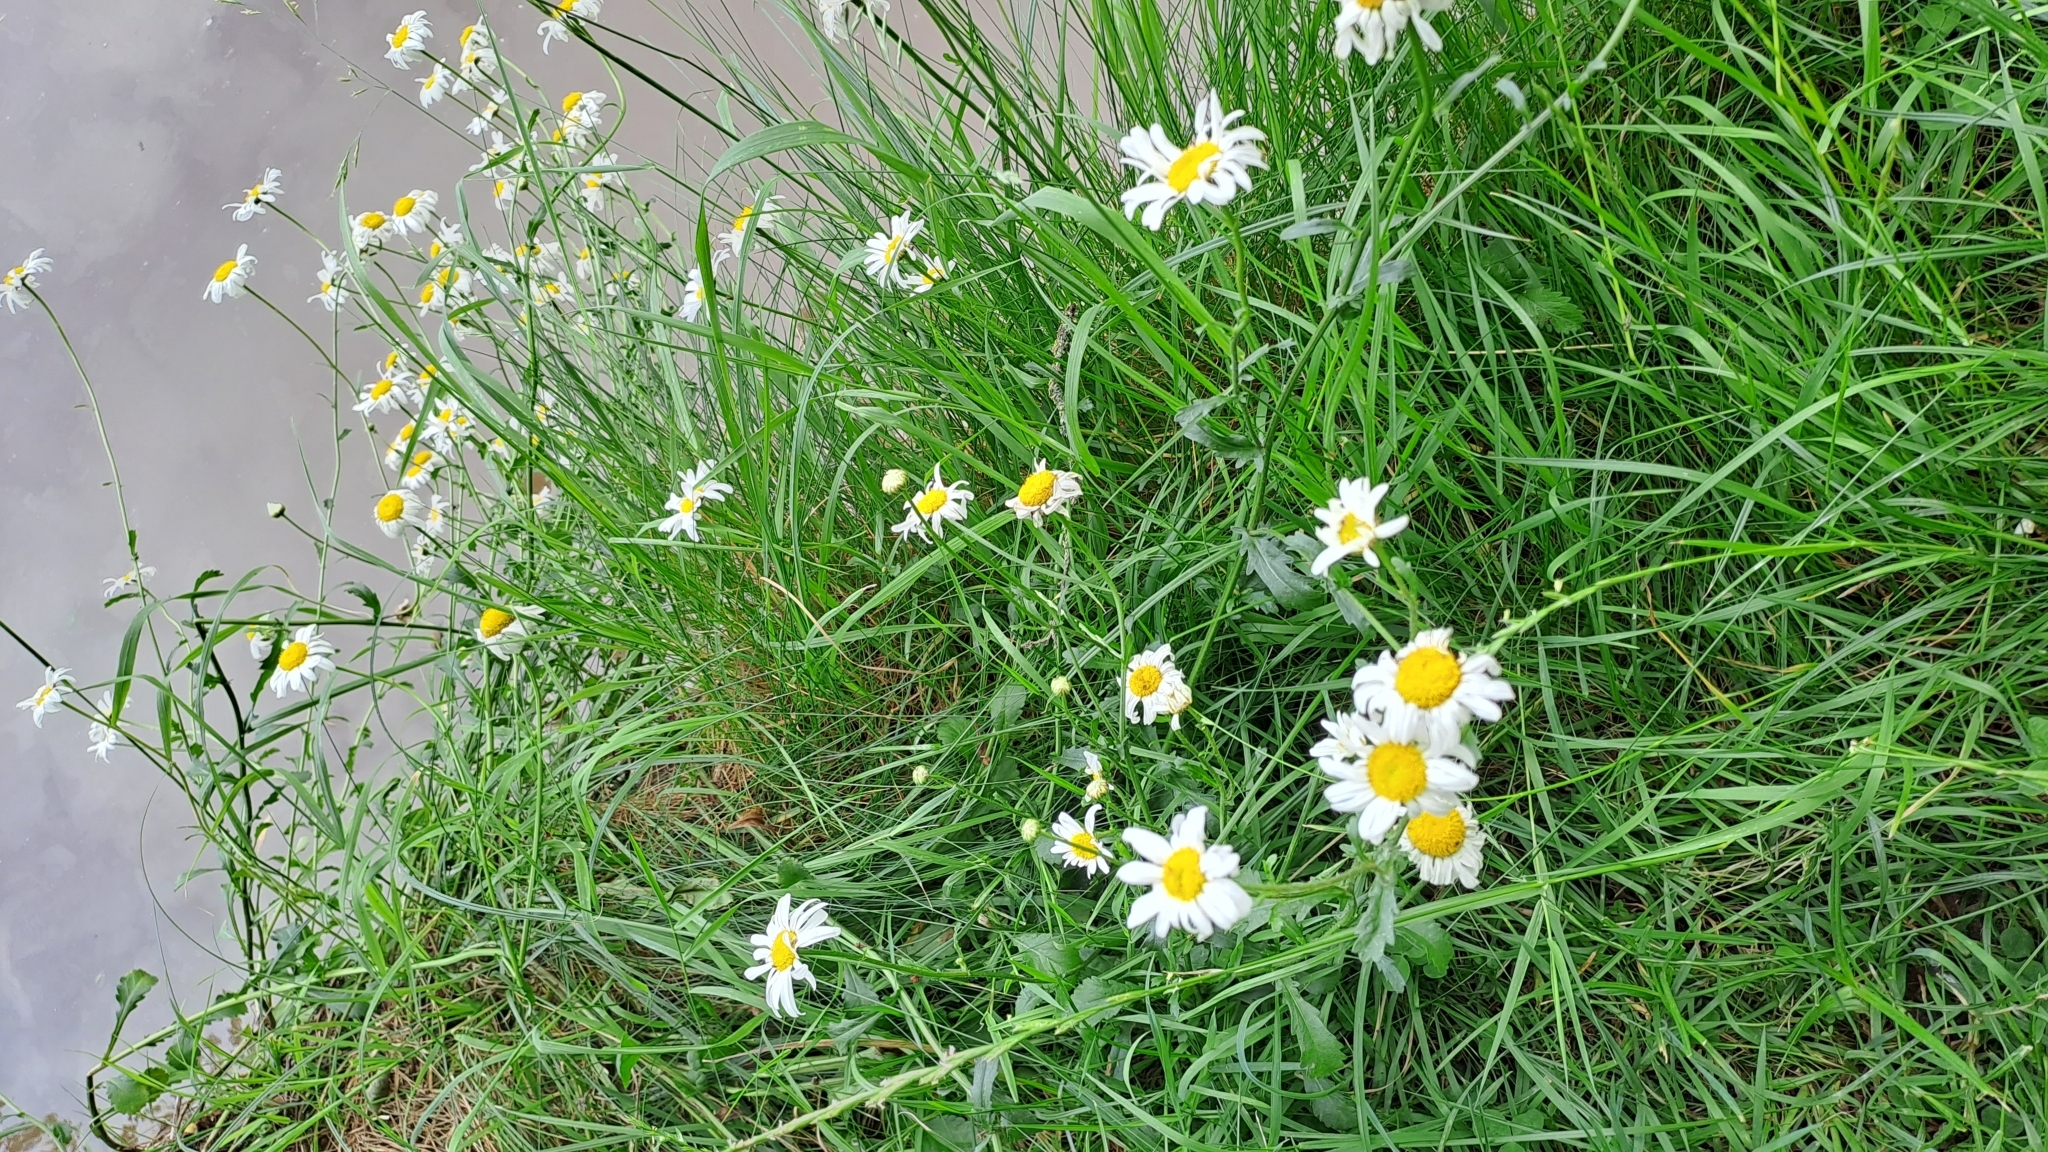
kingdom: Plantae
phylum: Tracheophyta
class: Magnoliopsida
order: Asterales
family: Asteraceae
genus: Leucanthemum
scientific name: Leucanthemum vulgare
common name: Oxeye daisy
